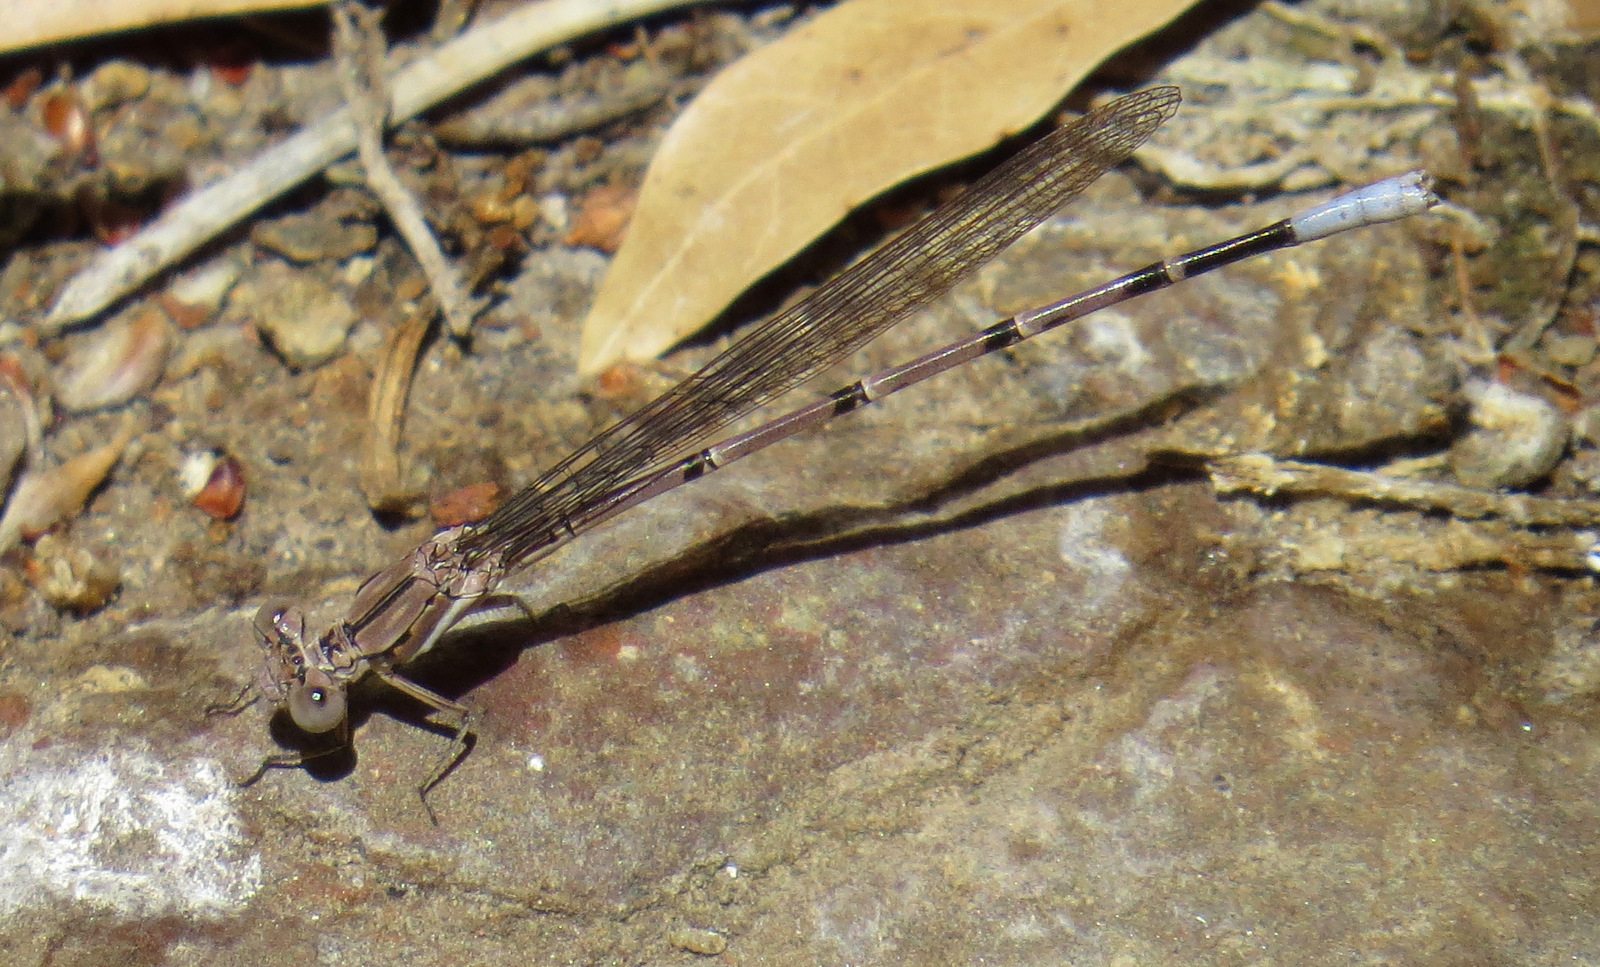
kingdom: Animalia
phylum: Arthropoda
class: Insecta
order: Odonata
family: Coenagrionidae
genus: Argia
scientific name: Argia munda
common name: Apache dancer
